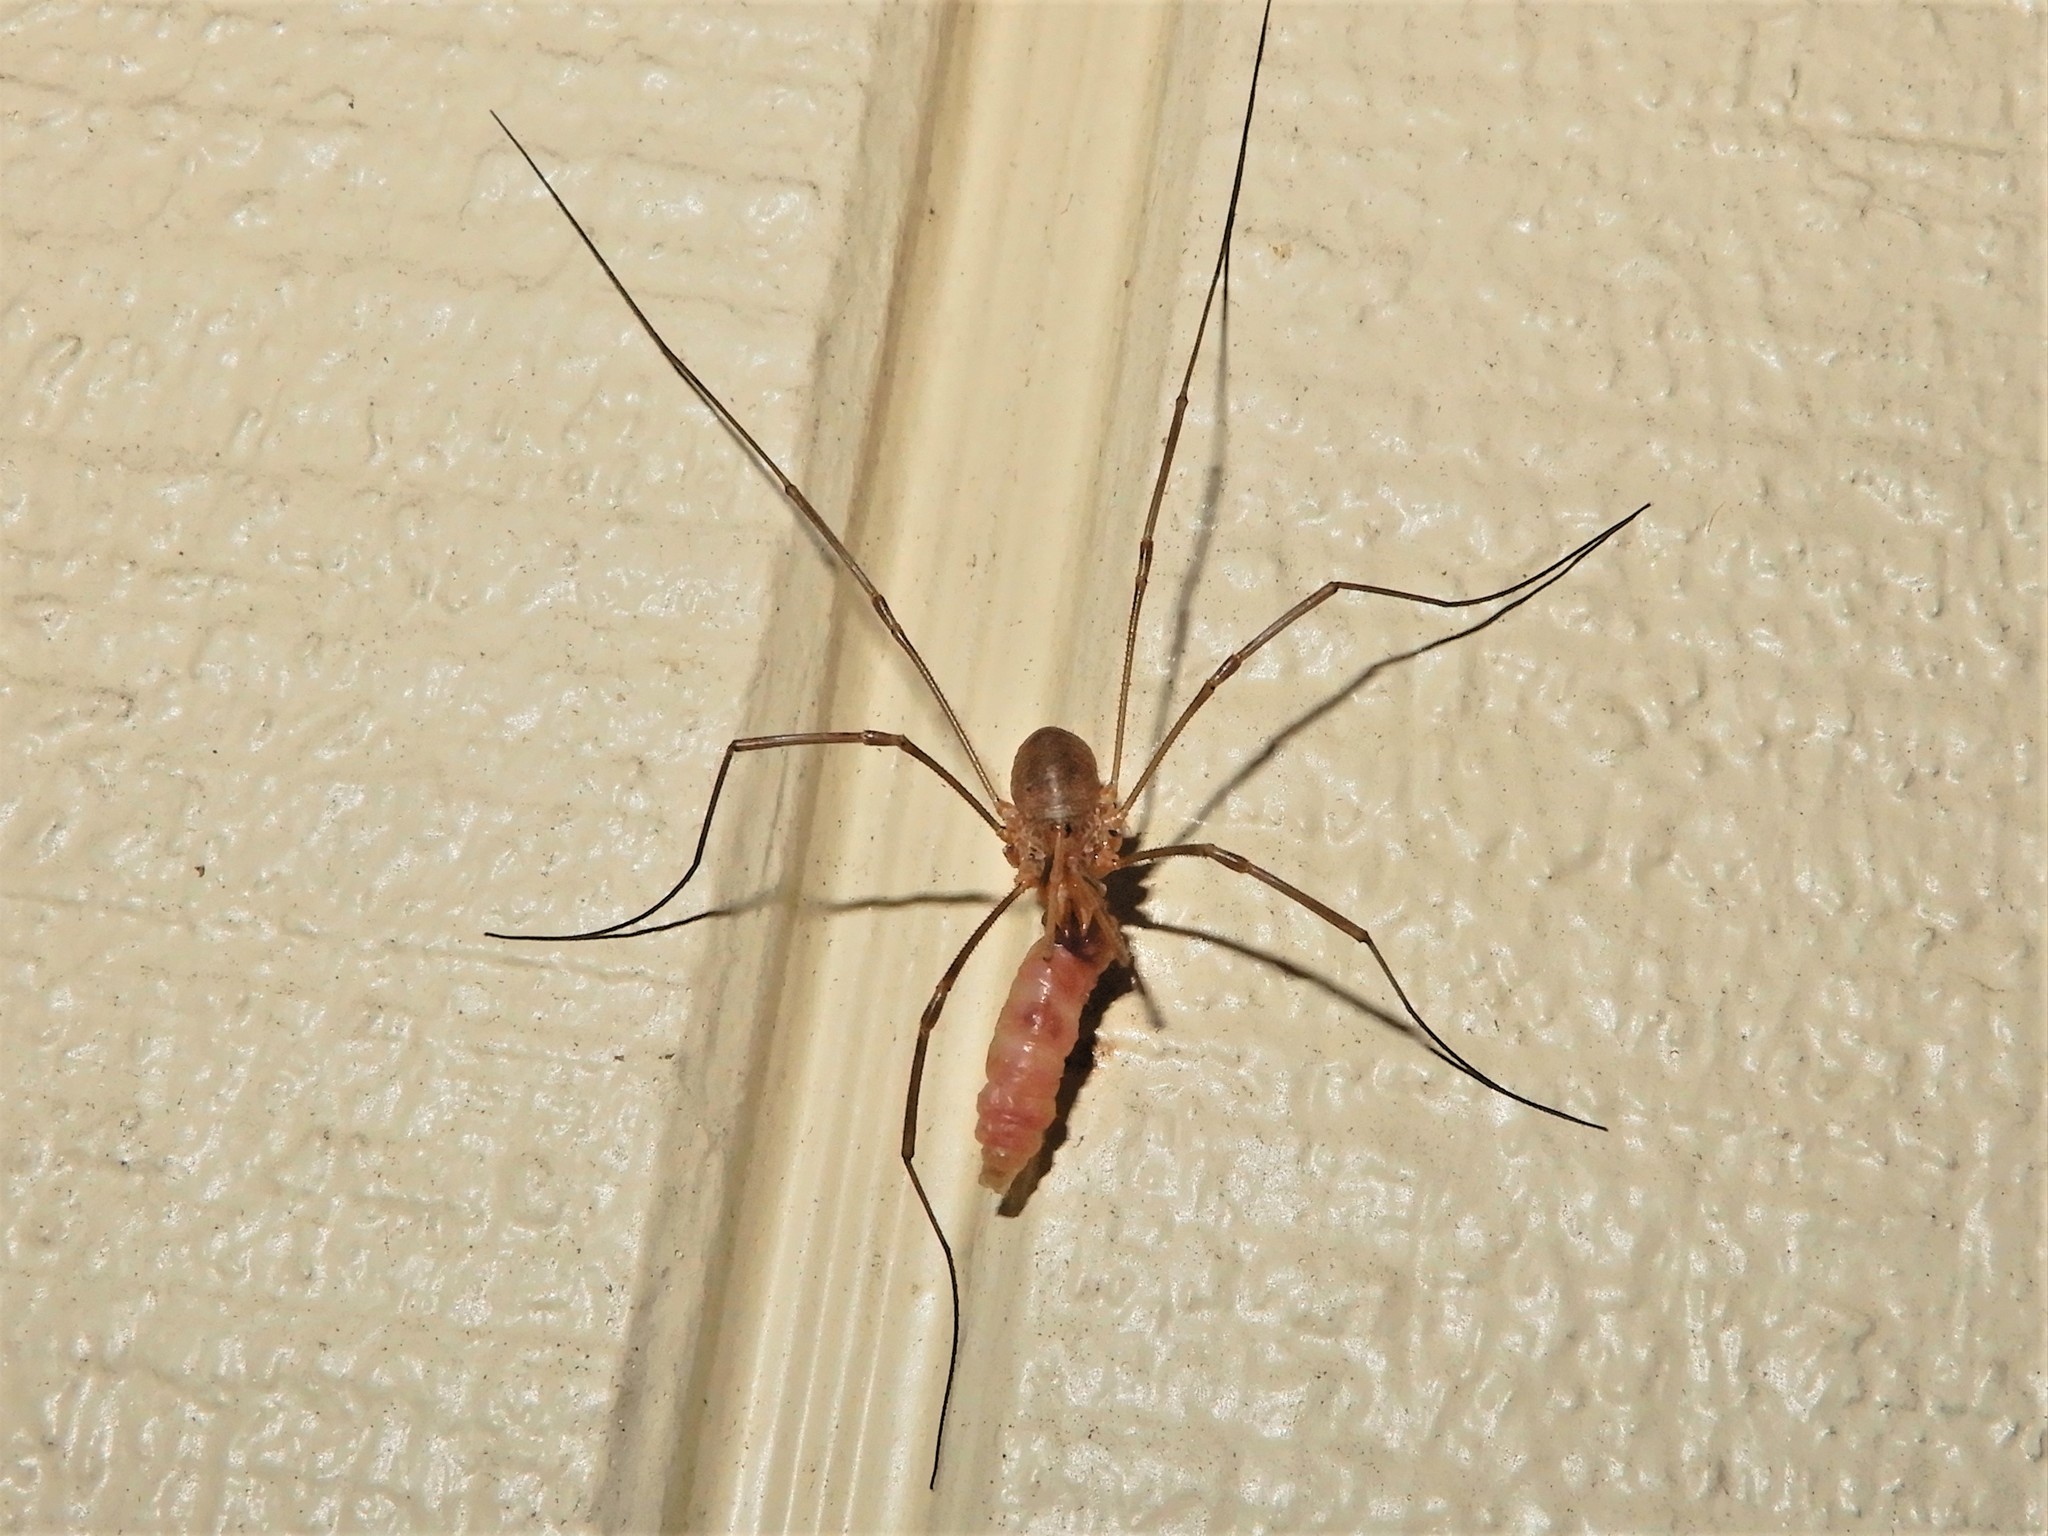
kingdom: Animalia
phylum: Arthropoda
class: Arachnida
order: Opiliones
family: Phalangiidae
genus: Phalangium
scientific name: Phalangium opilio
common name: Daddy longleg
